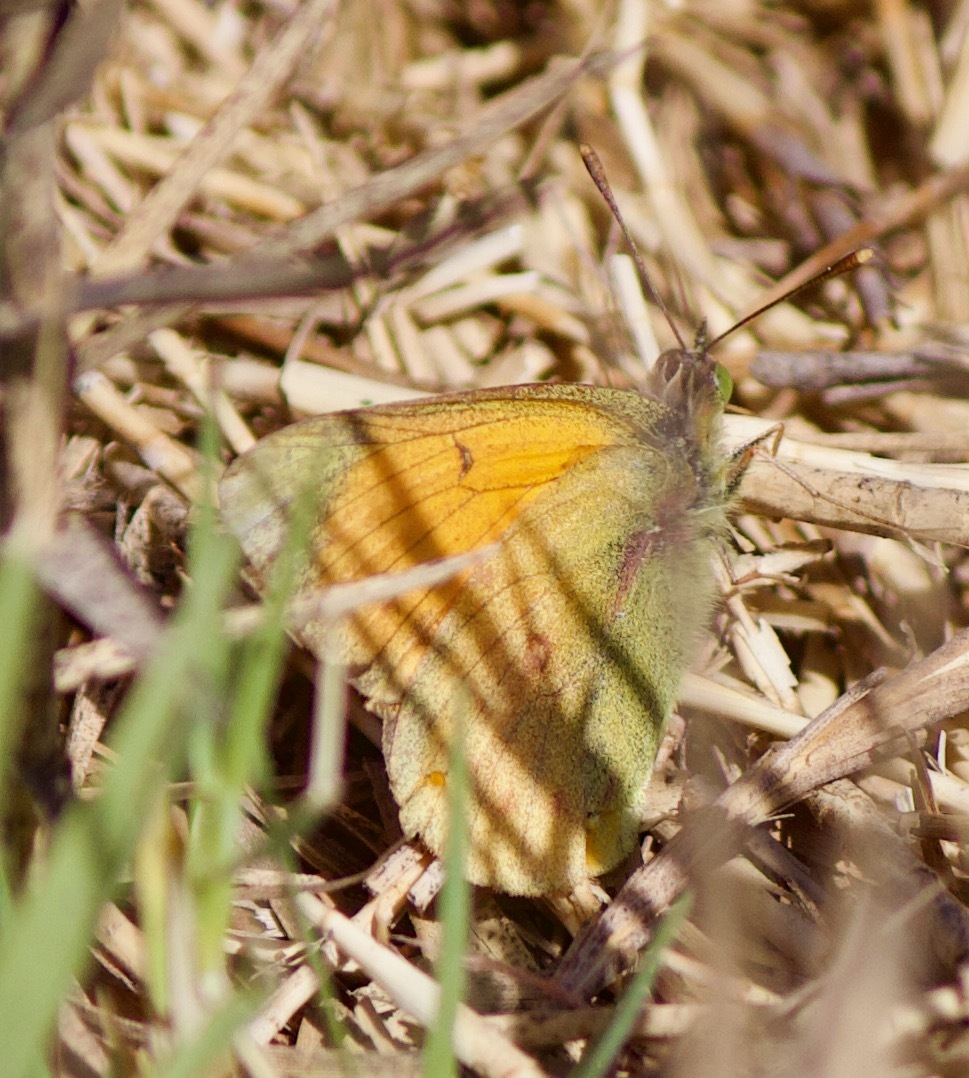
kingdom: Animalia
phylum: Arthropoda
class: Insecta
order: Lepidoptera
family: Pieridae
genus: Colias
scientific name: Colias vauthierii
